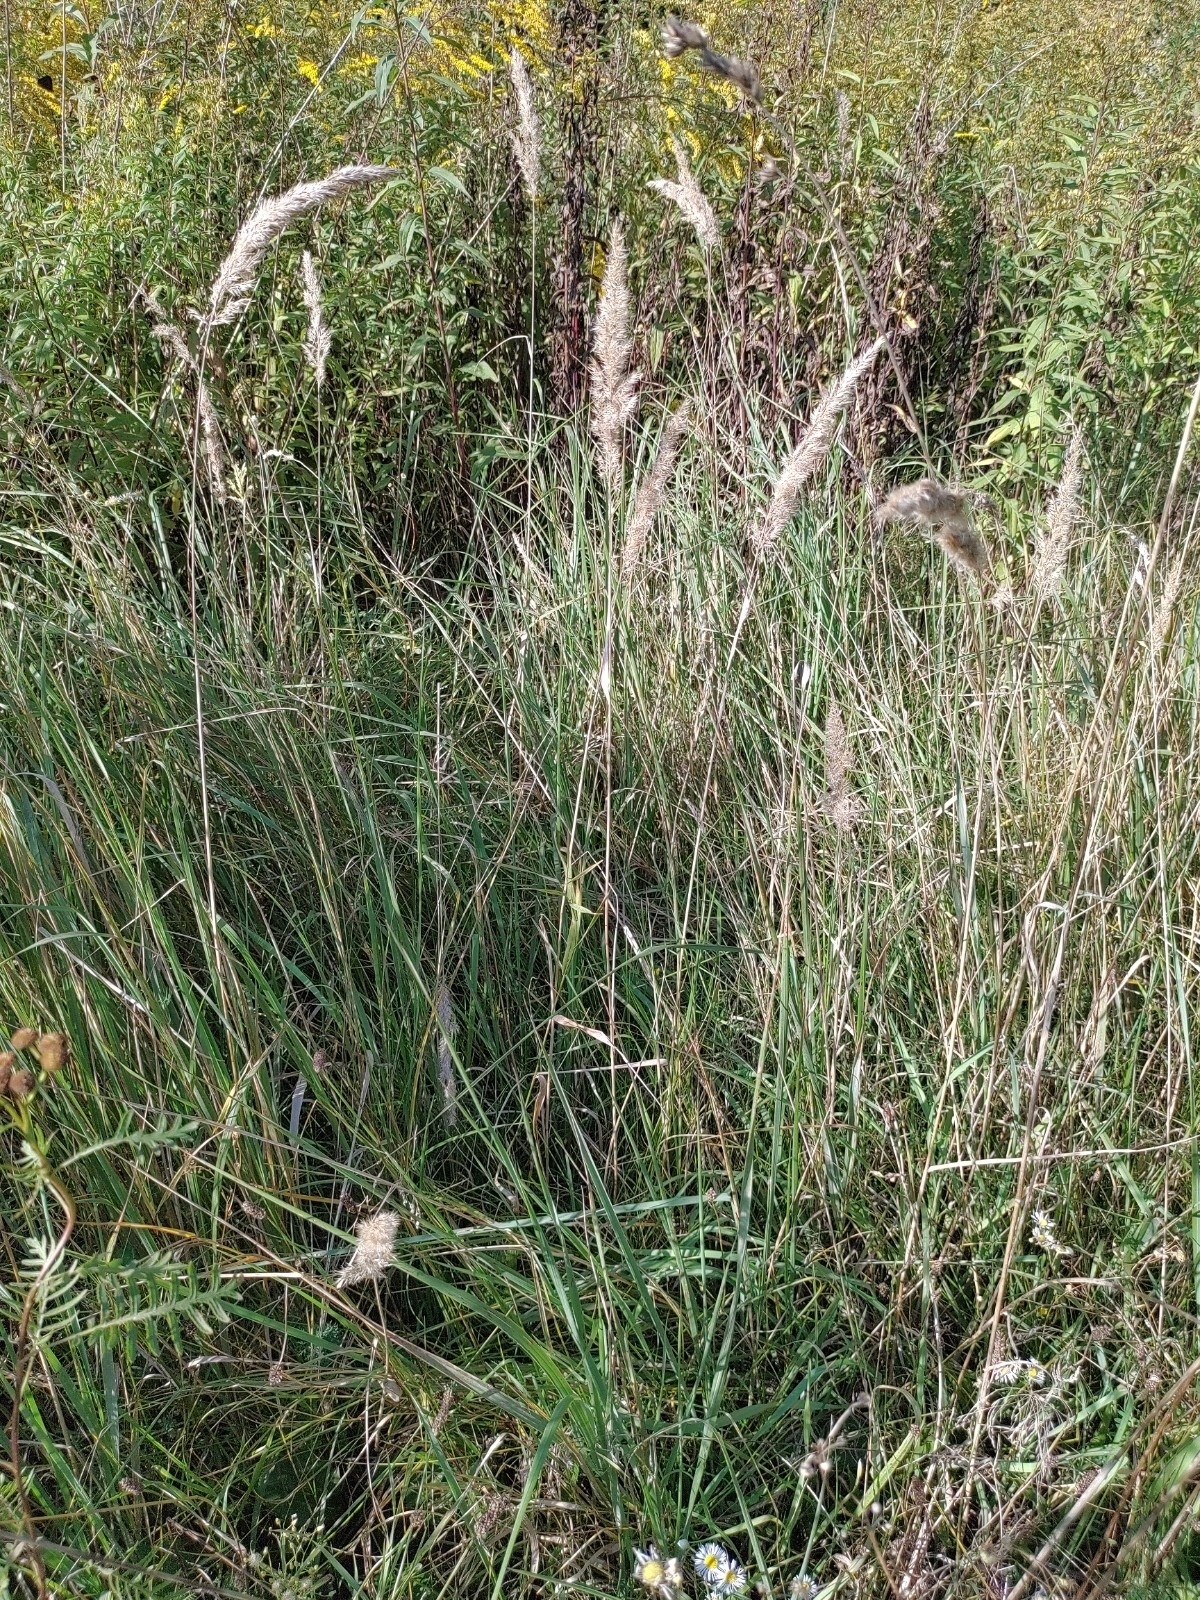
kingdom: Plantae
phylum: Tracheophyta
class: Liliopsida
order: Poales
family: Poaceae
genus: Calamagrostis
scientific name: Calamagrostis epigejos
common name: Wood small-reed
